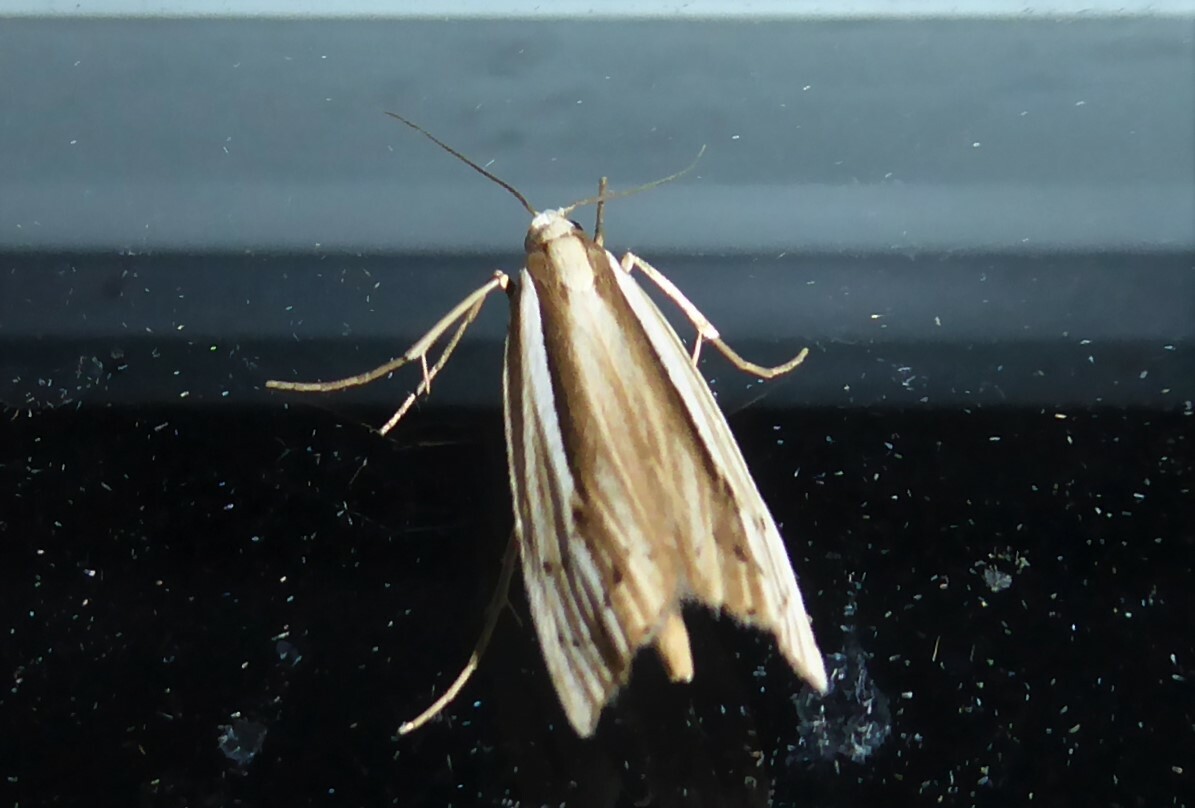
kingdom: Animalia
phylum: Arthropoda
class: Insecta
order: Lepidoptera
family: Crambidae
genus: Orocrambus
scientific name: Orocrambus ramosellus
